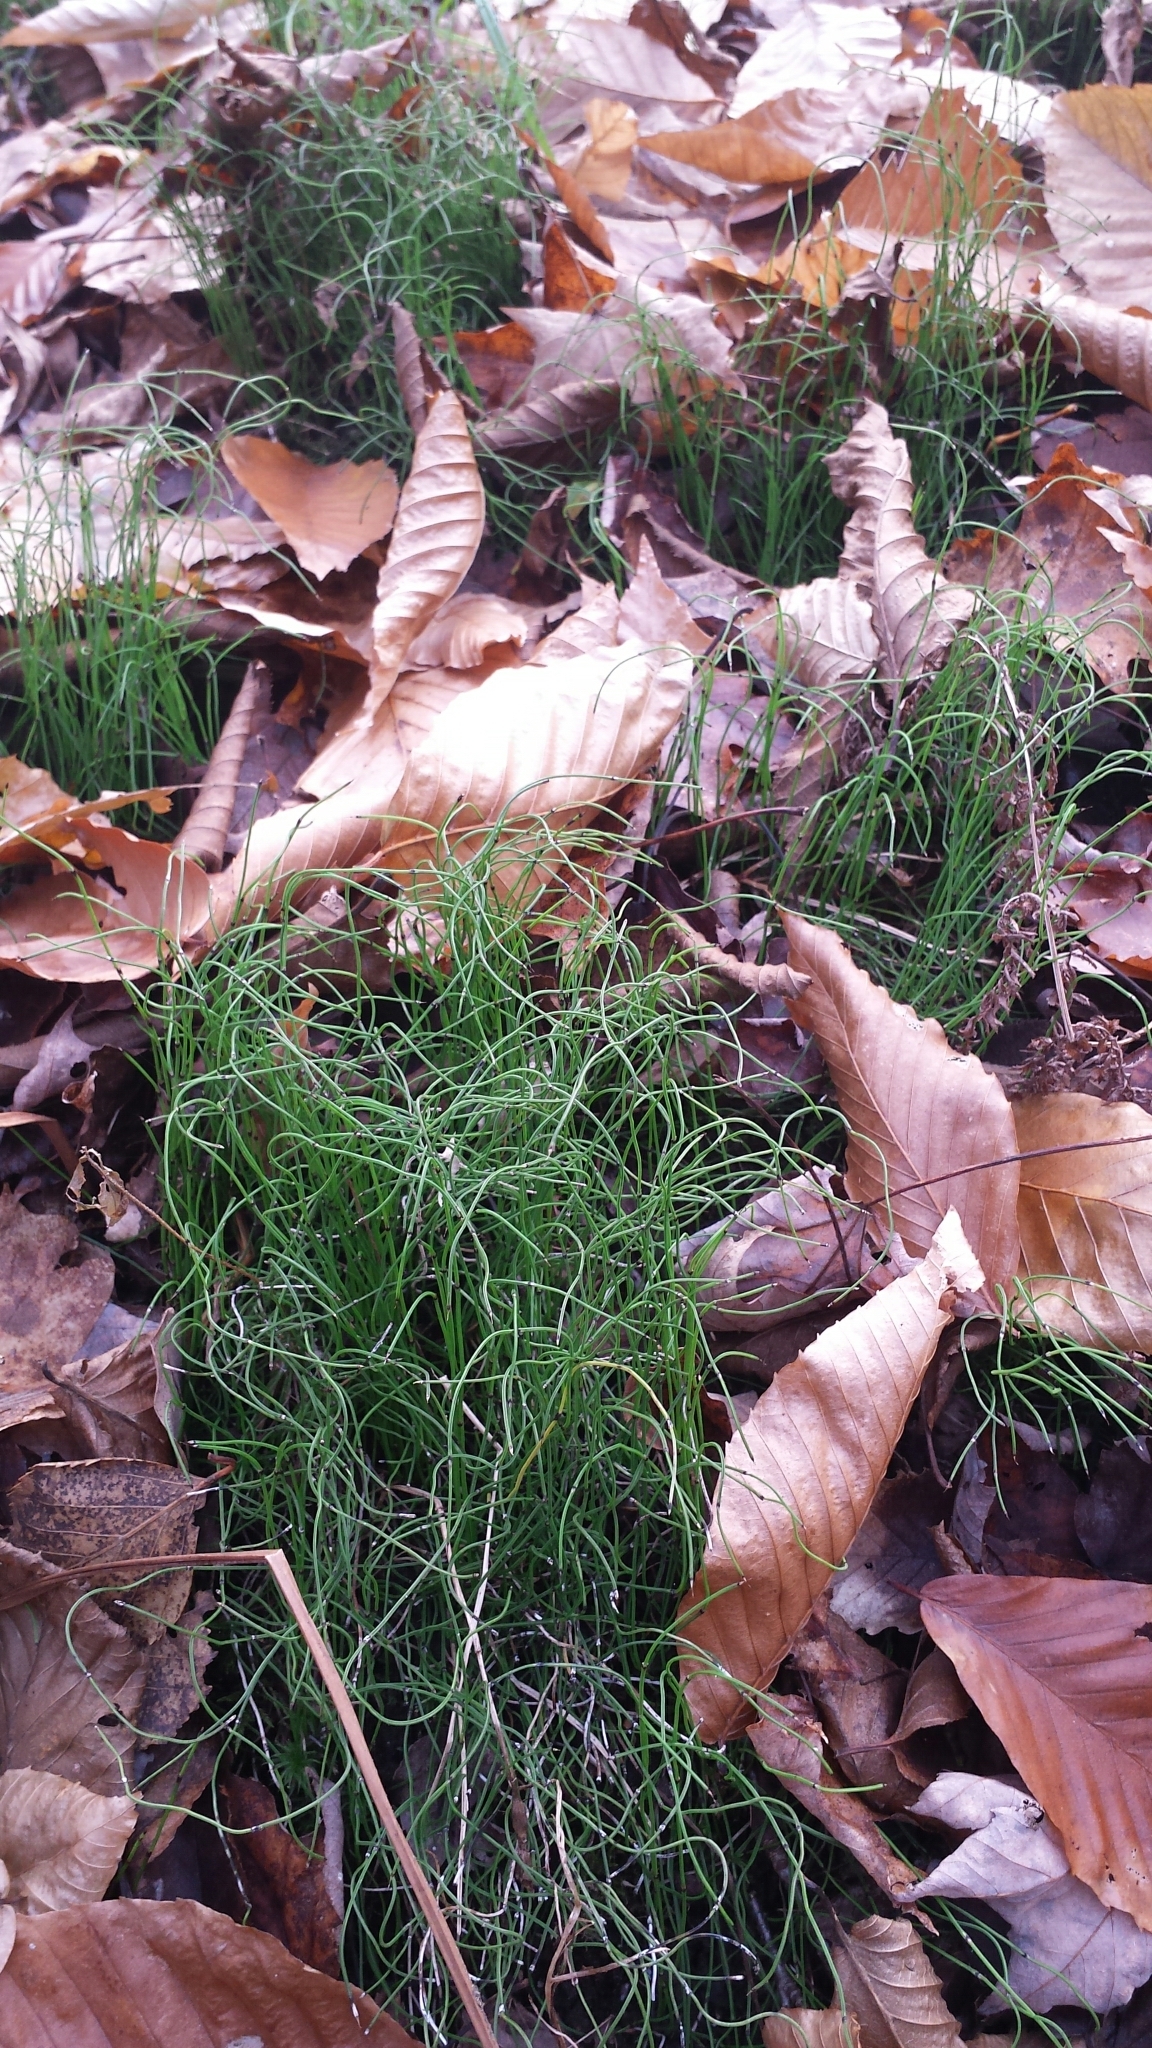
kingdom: Plantae
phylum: Tracheophyta
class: Polypodiopsida
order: Equisetales
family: Equisetaceae
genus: Equisetum
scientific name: Equisetum scirpoides
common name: Delicate horsetail
